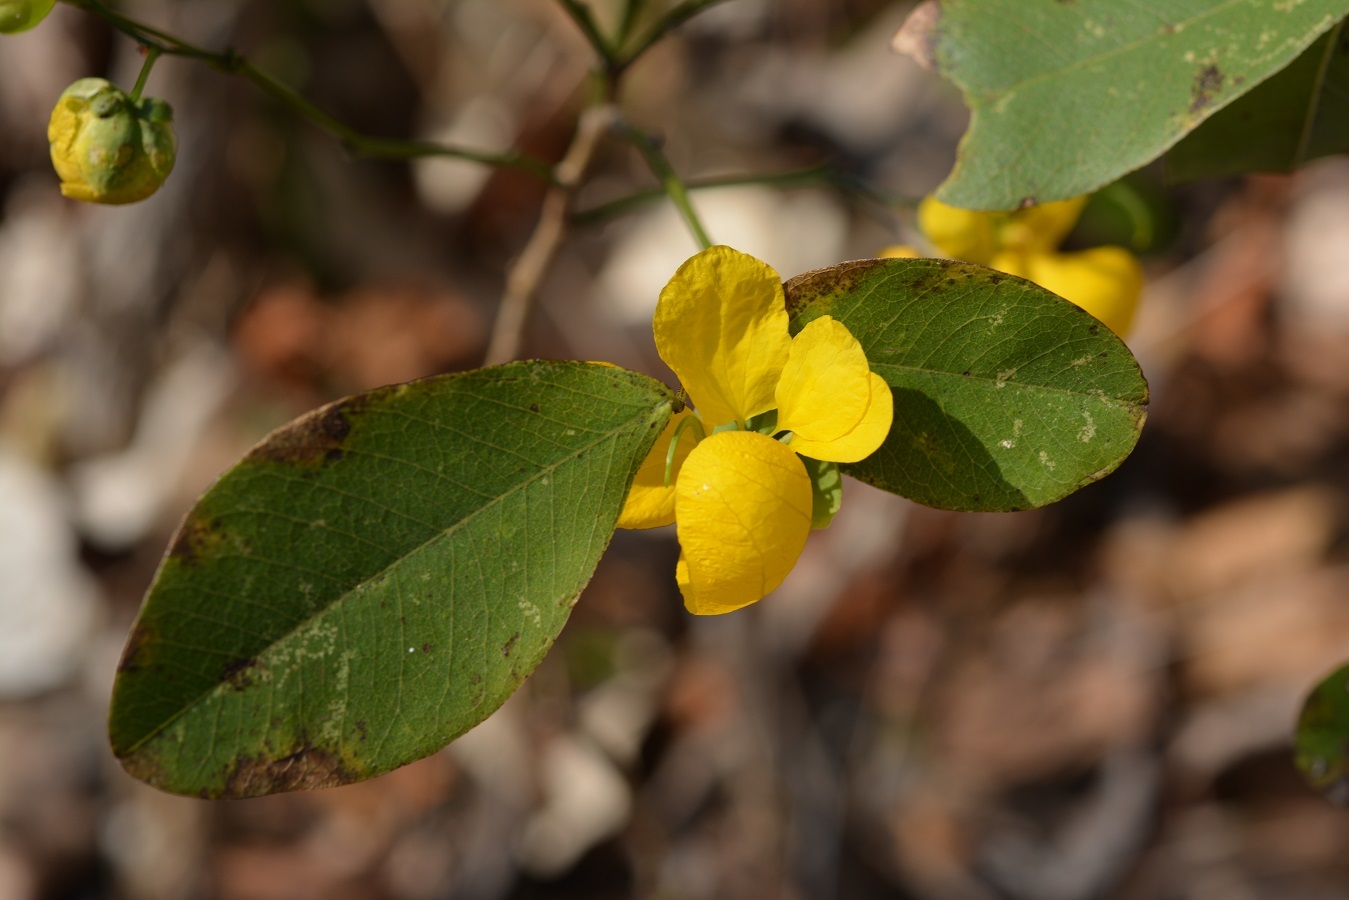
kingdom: Plantae
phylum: Tracheophyta
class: Magnoliopsida
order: Fabales
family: Fabaceae
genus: Senna
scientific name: Senna holwayana
